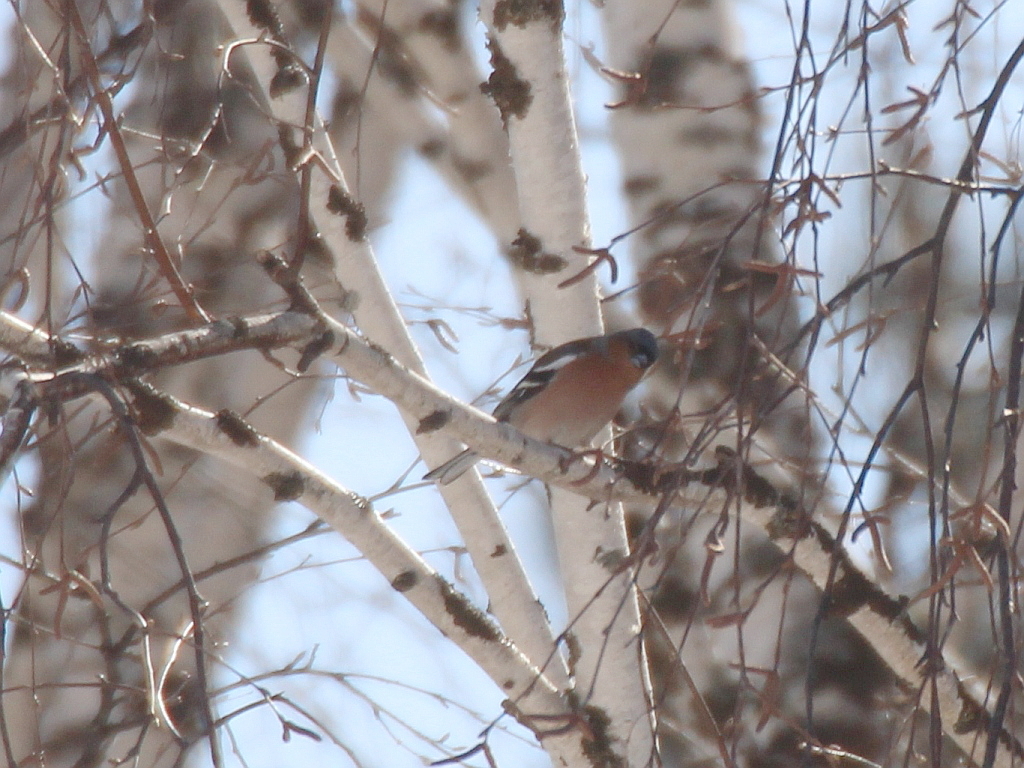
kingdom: Animalia
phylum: Chordata
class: Aves
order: Passeriformes
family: Fringillidae
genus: Fringilla
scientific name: Fringilla coelebs
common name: Common chaffinch
